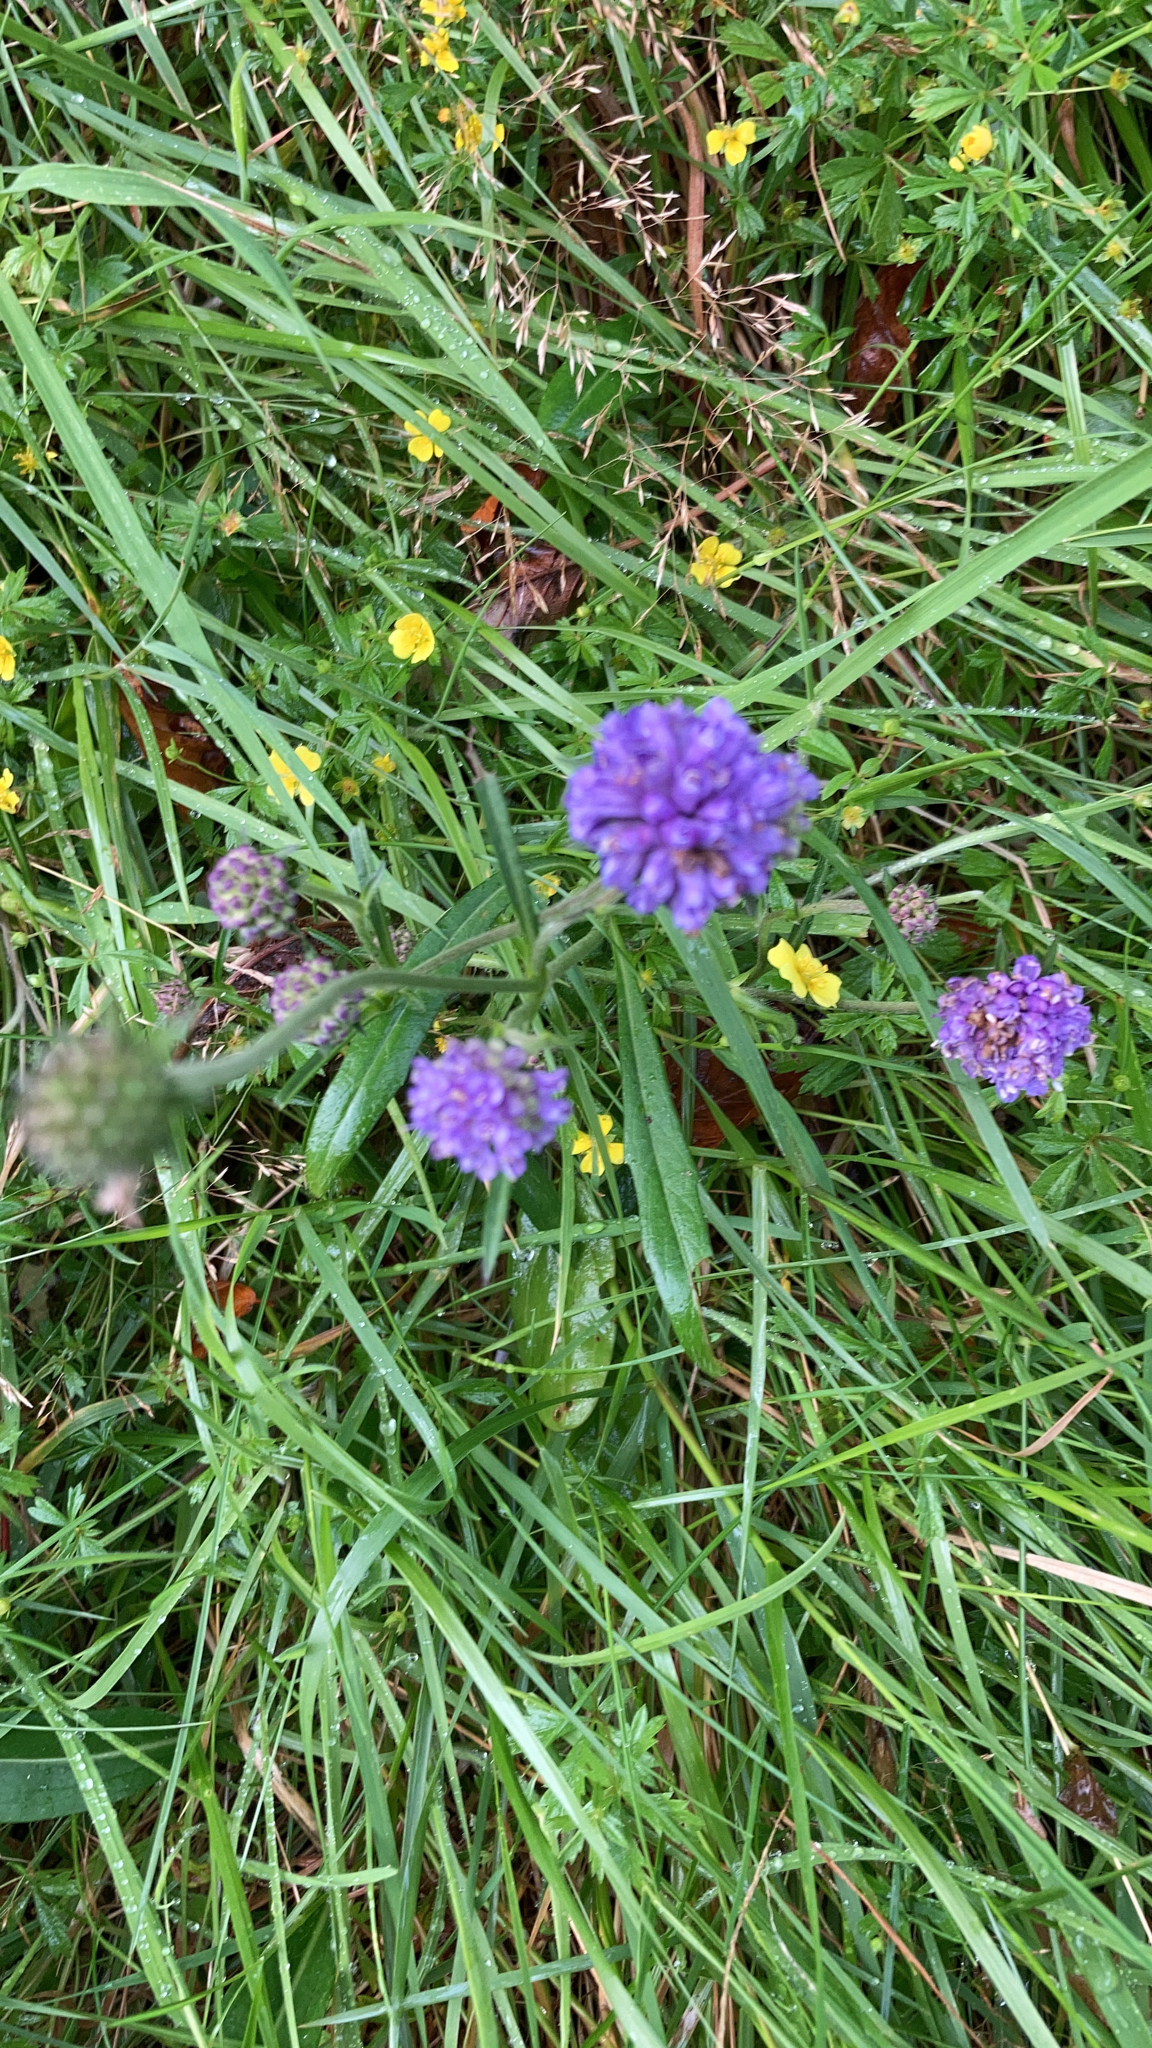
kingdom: Plantae
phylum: Tracheophyta
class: Magnoliopsida
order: Dipsacales
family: Caprifoliaceae
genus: Succisa
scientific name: Succisa pratensis
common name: Devil's-bit
